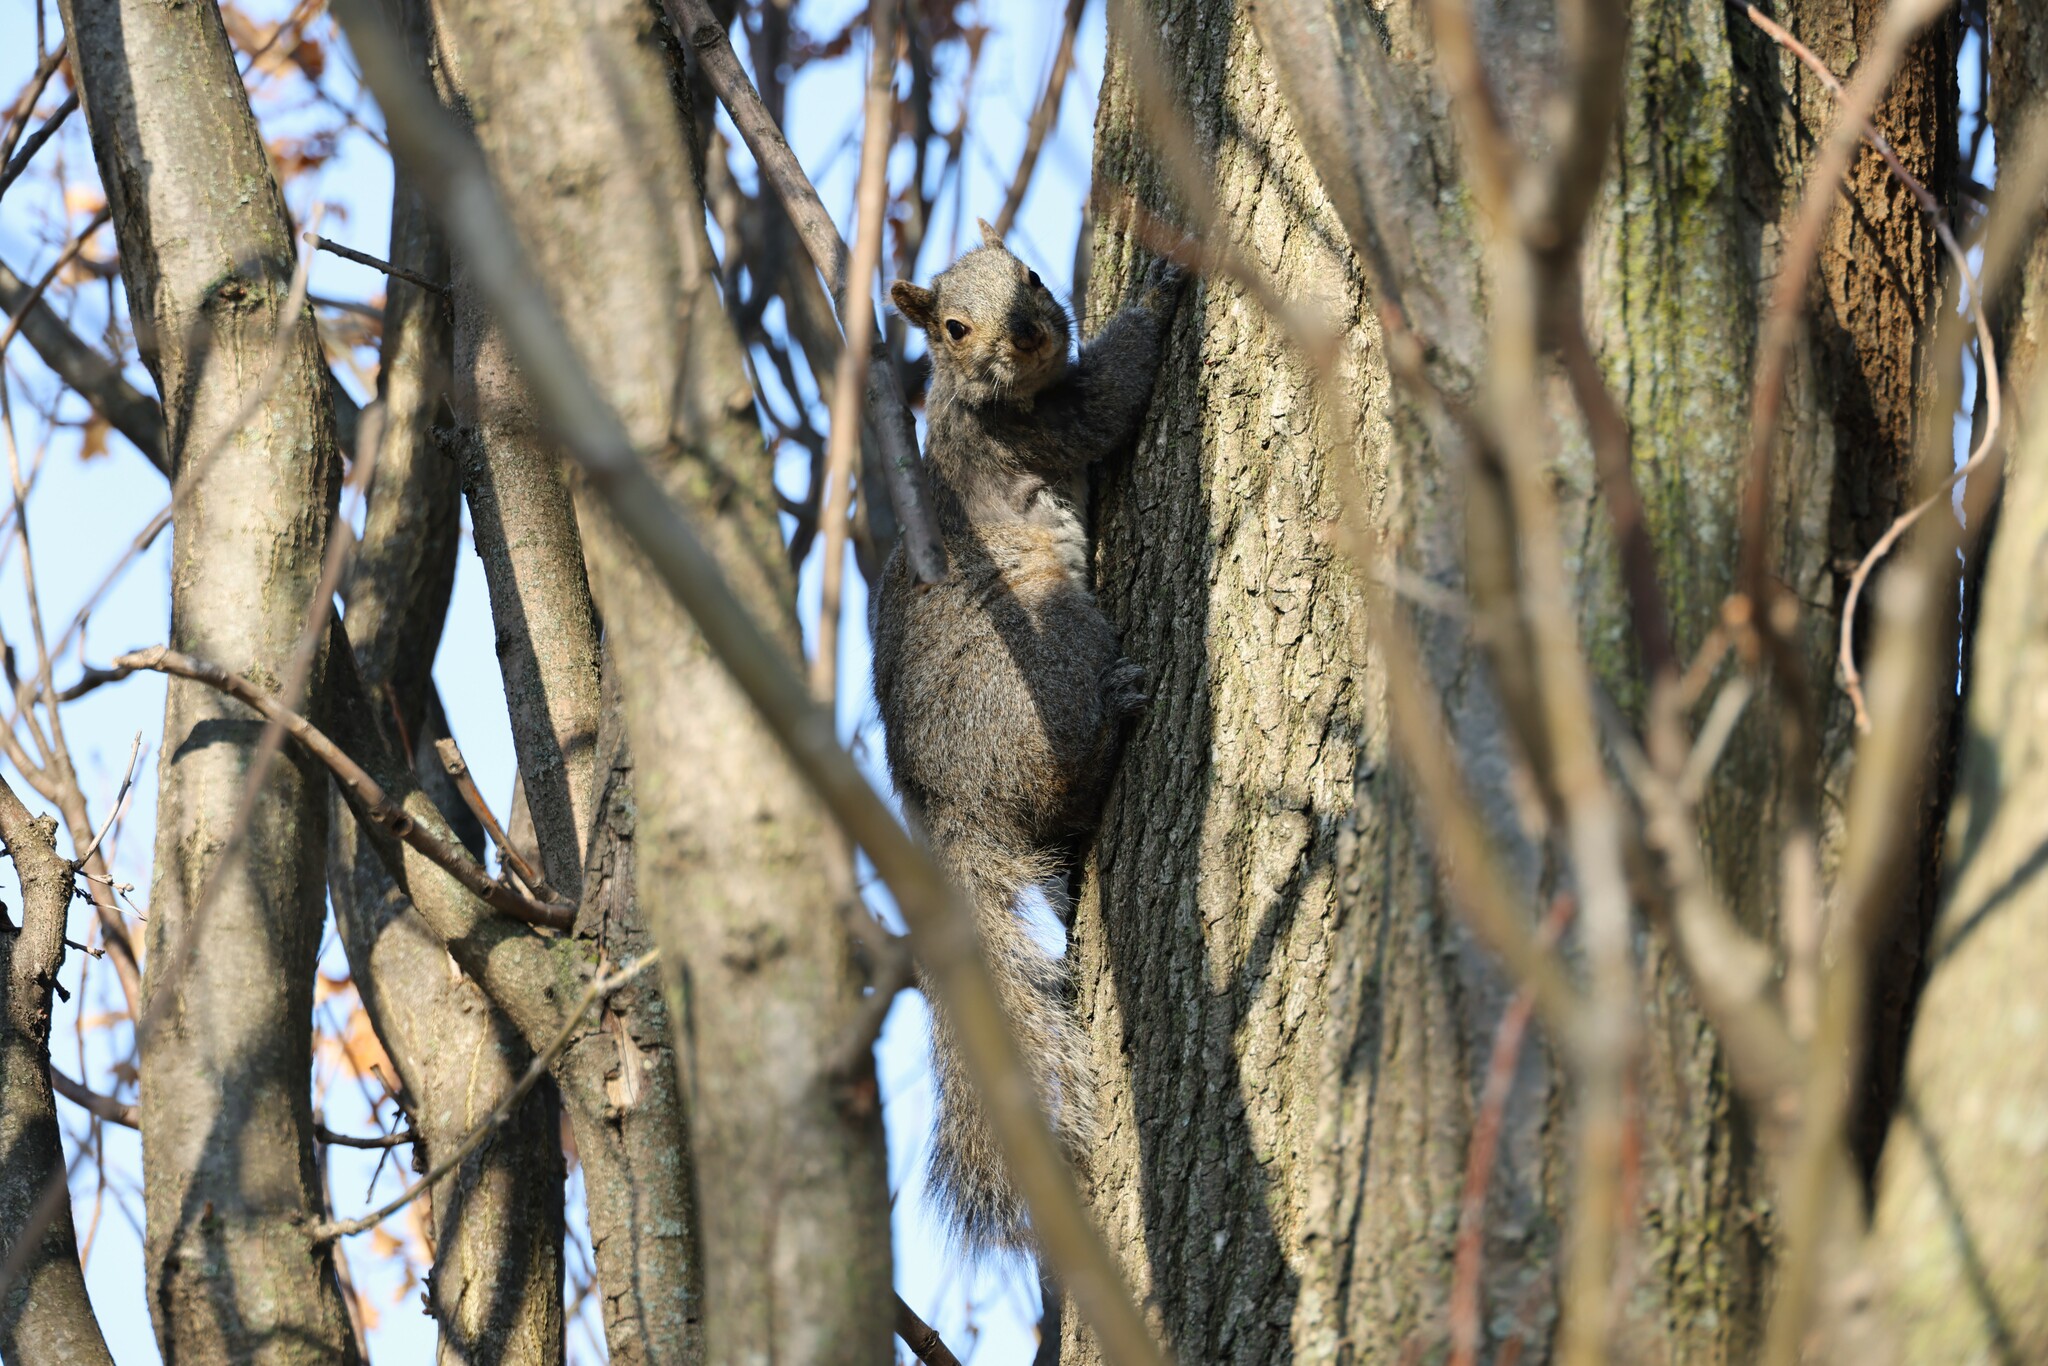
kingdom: Animalia
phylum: Chordata
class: Mammalia
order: Rodentia
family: Sciuridae
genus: Sciurus
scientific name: Sciurus carolinensis
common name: Eastern gray squirrel
